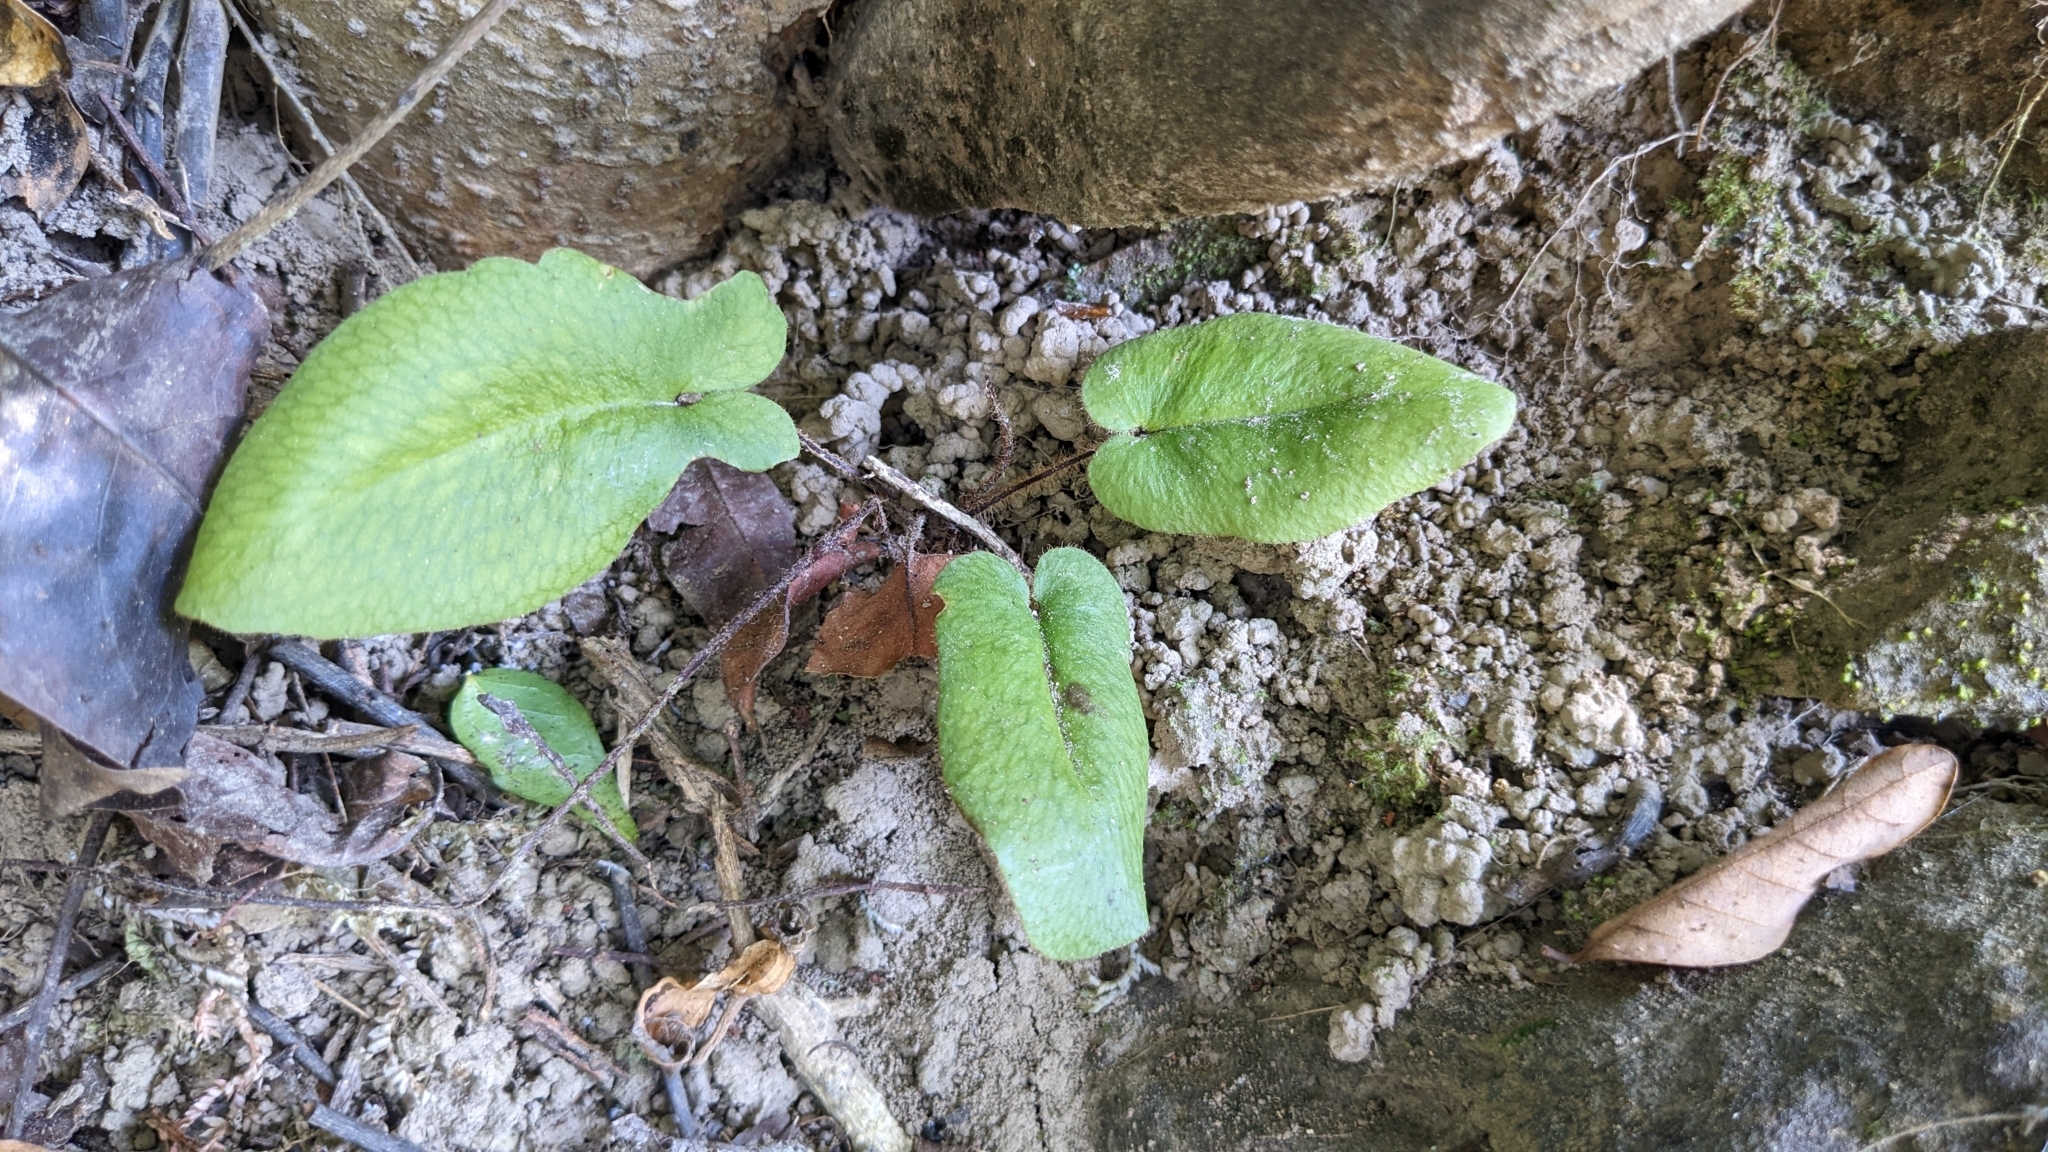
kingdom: Plantae
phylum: Tracheophyta
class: Polypodiopsida
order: Polypodiales
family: Pteridaceae
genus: Mickelopteris
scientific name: Mickelopteris cordata
